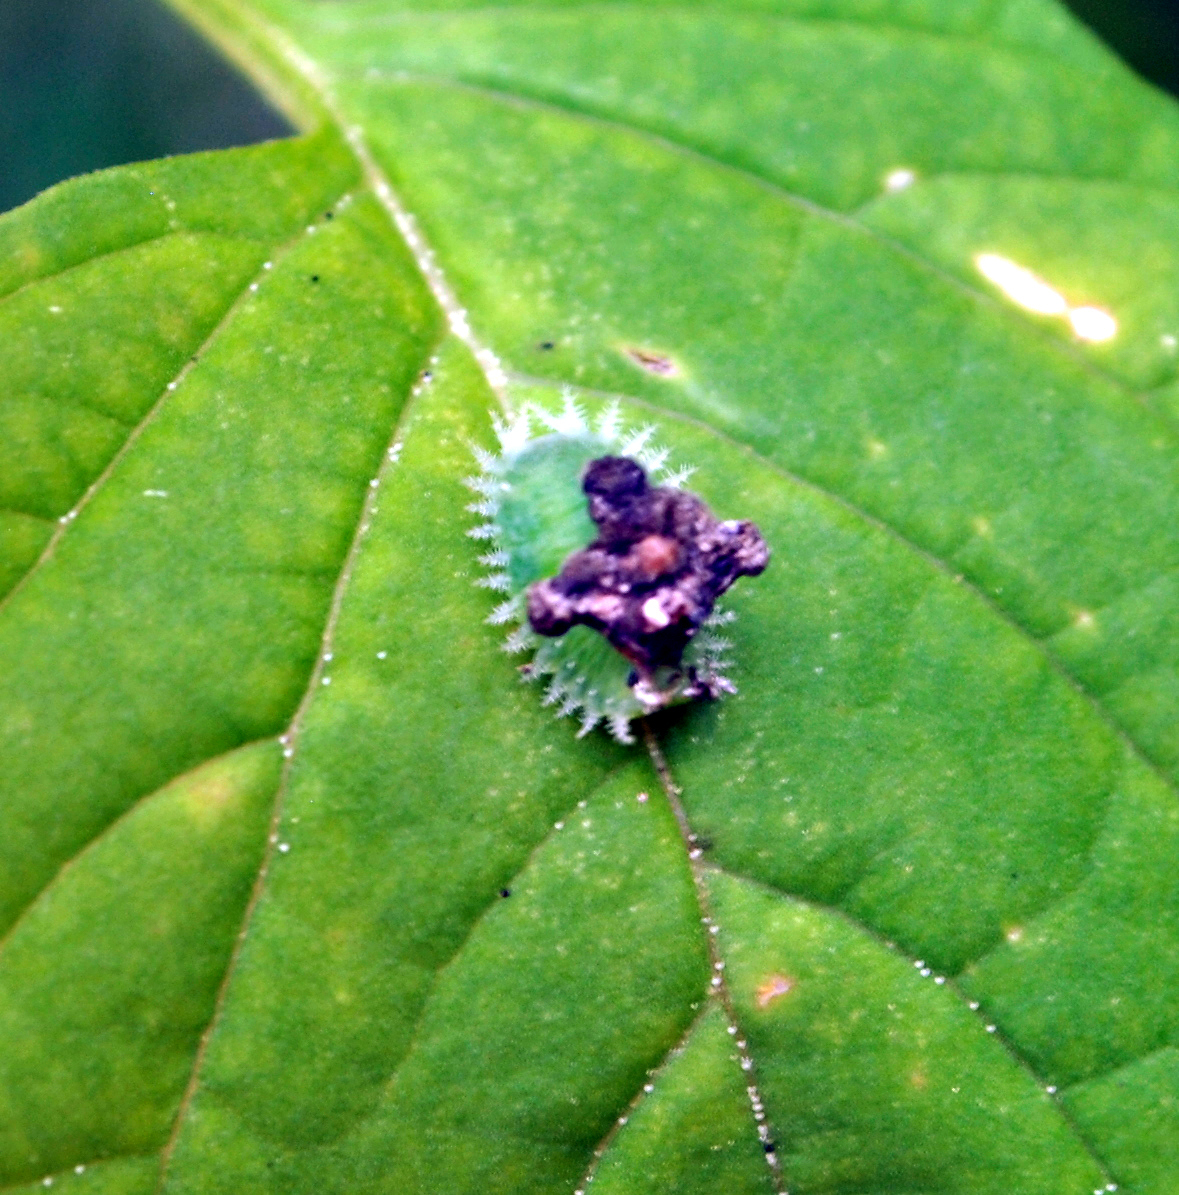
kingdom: Animalia
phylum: Arthropoda
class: Insecta
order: Coleoptera
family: Chrysomelidae
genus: Helocassis
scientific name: Helocassis clavata
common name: Clavate tortoise beetle
